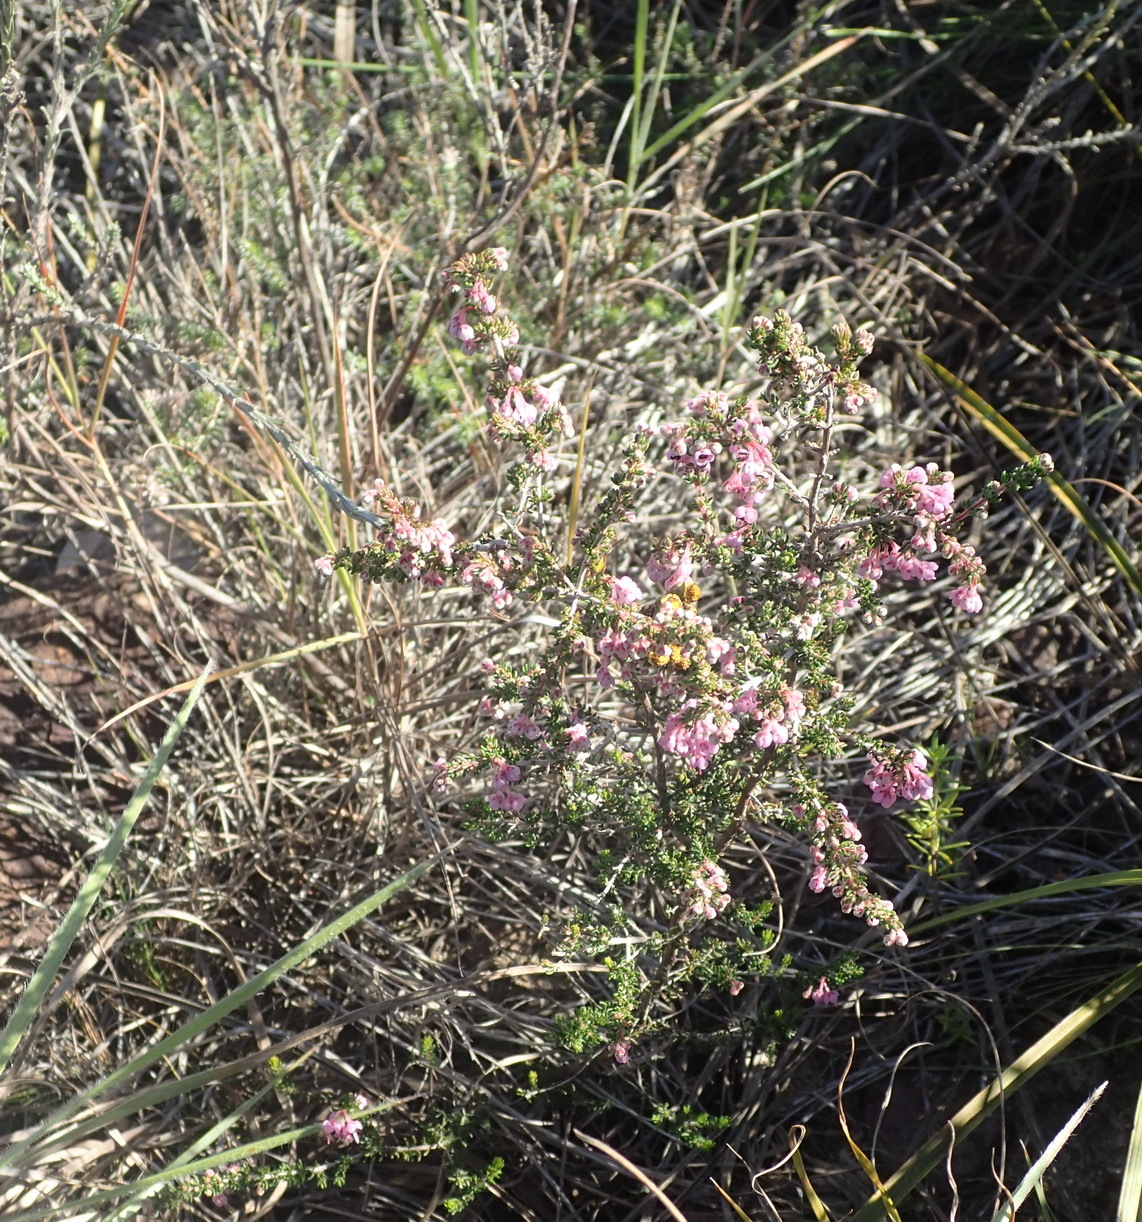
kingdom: Plantae
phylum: Tracheophyta
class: Magnoliopsida
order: Ericales
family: Ericaceae
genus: Erica
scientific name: Erica chamissonis
